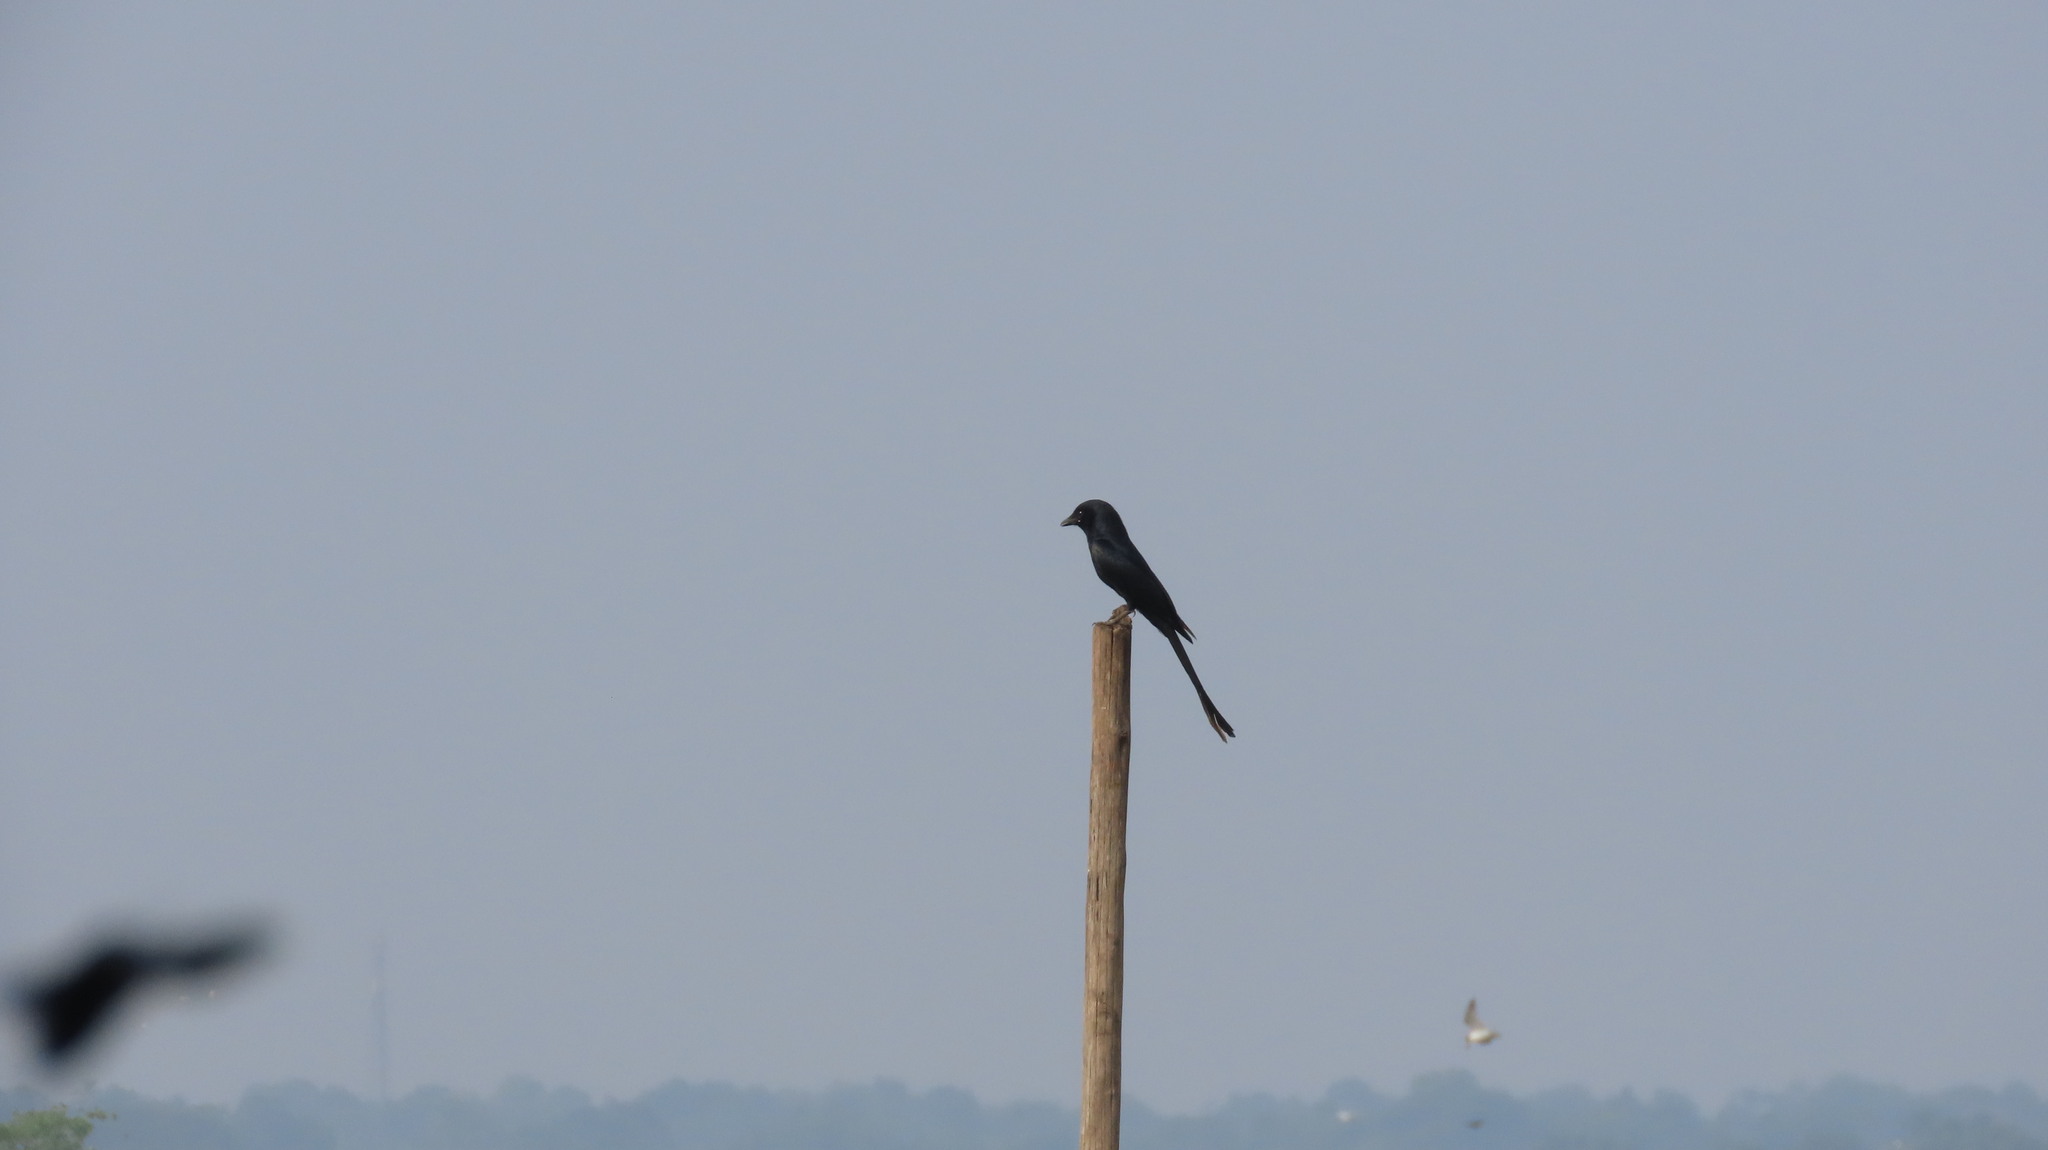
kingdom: Animalia
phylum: Chordata
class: Aves
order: Passeriformes
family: Dicruridae
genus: Dicrurus
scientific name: Dicrurus macrocercus
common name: Black drongo
